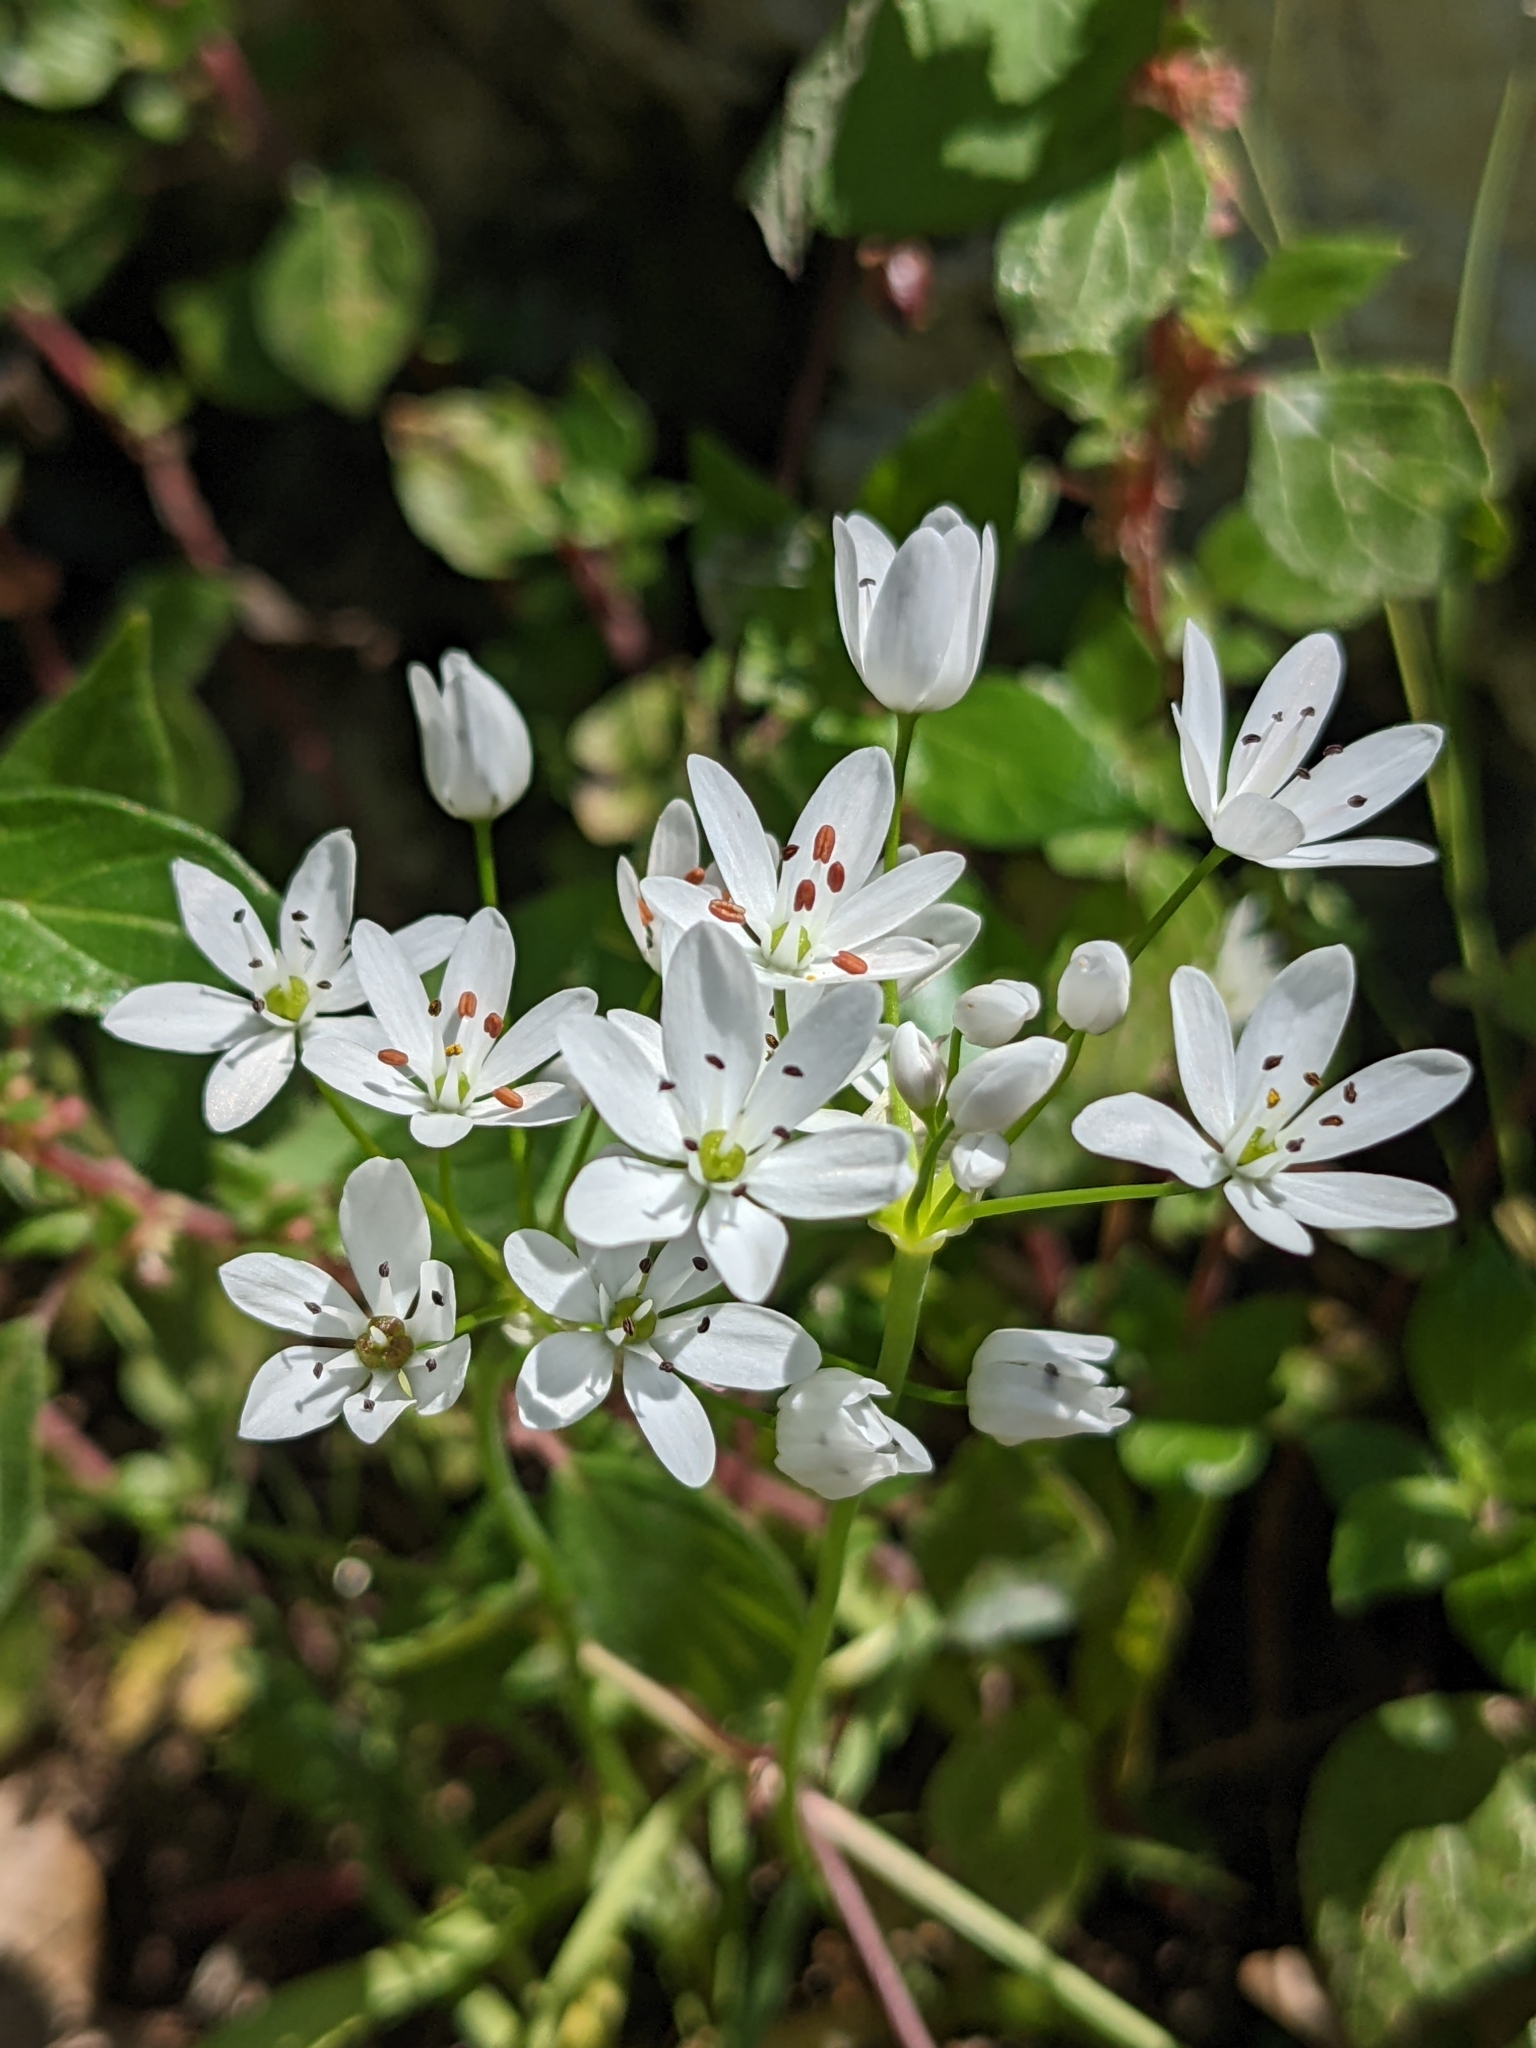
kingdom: Plantae
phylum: Tracheophyta
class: Liliopsida
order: Asparagales
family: Amaryllidaceae
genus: Allium
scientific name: Allium subhirsutum
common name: Hairy garlic
